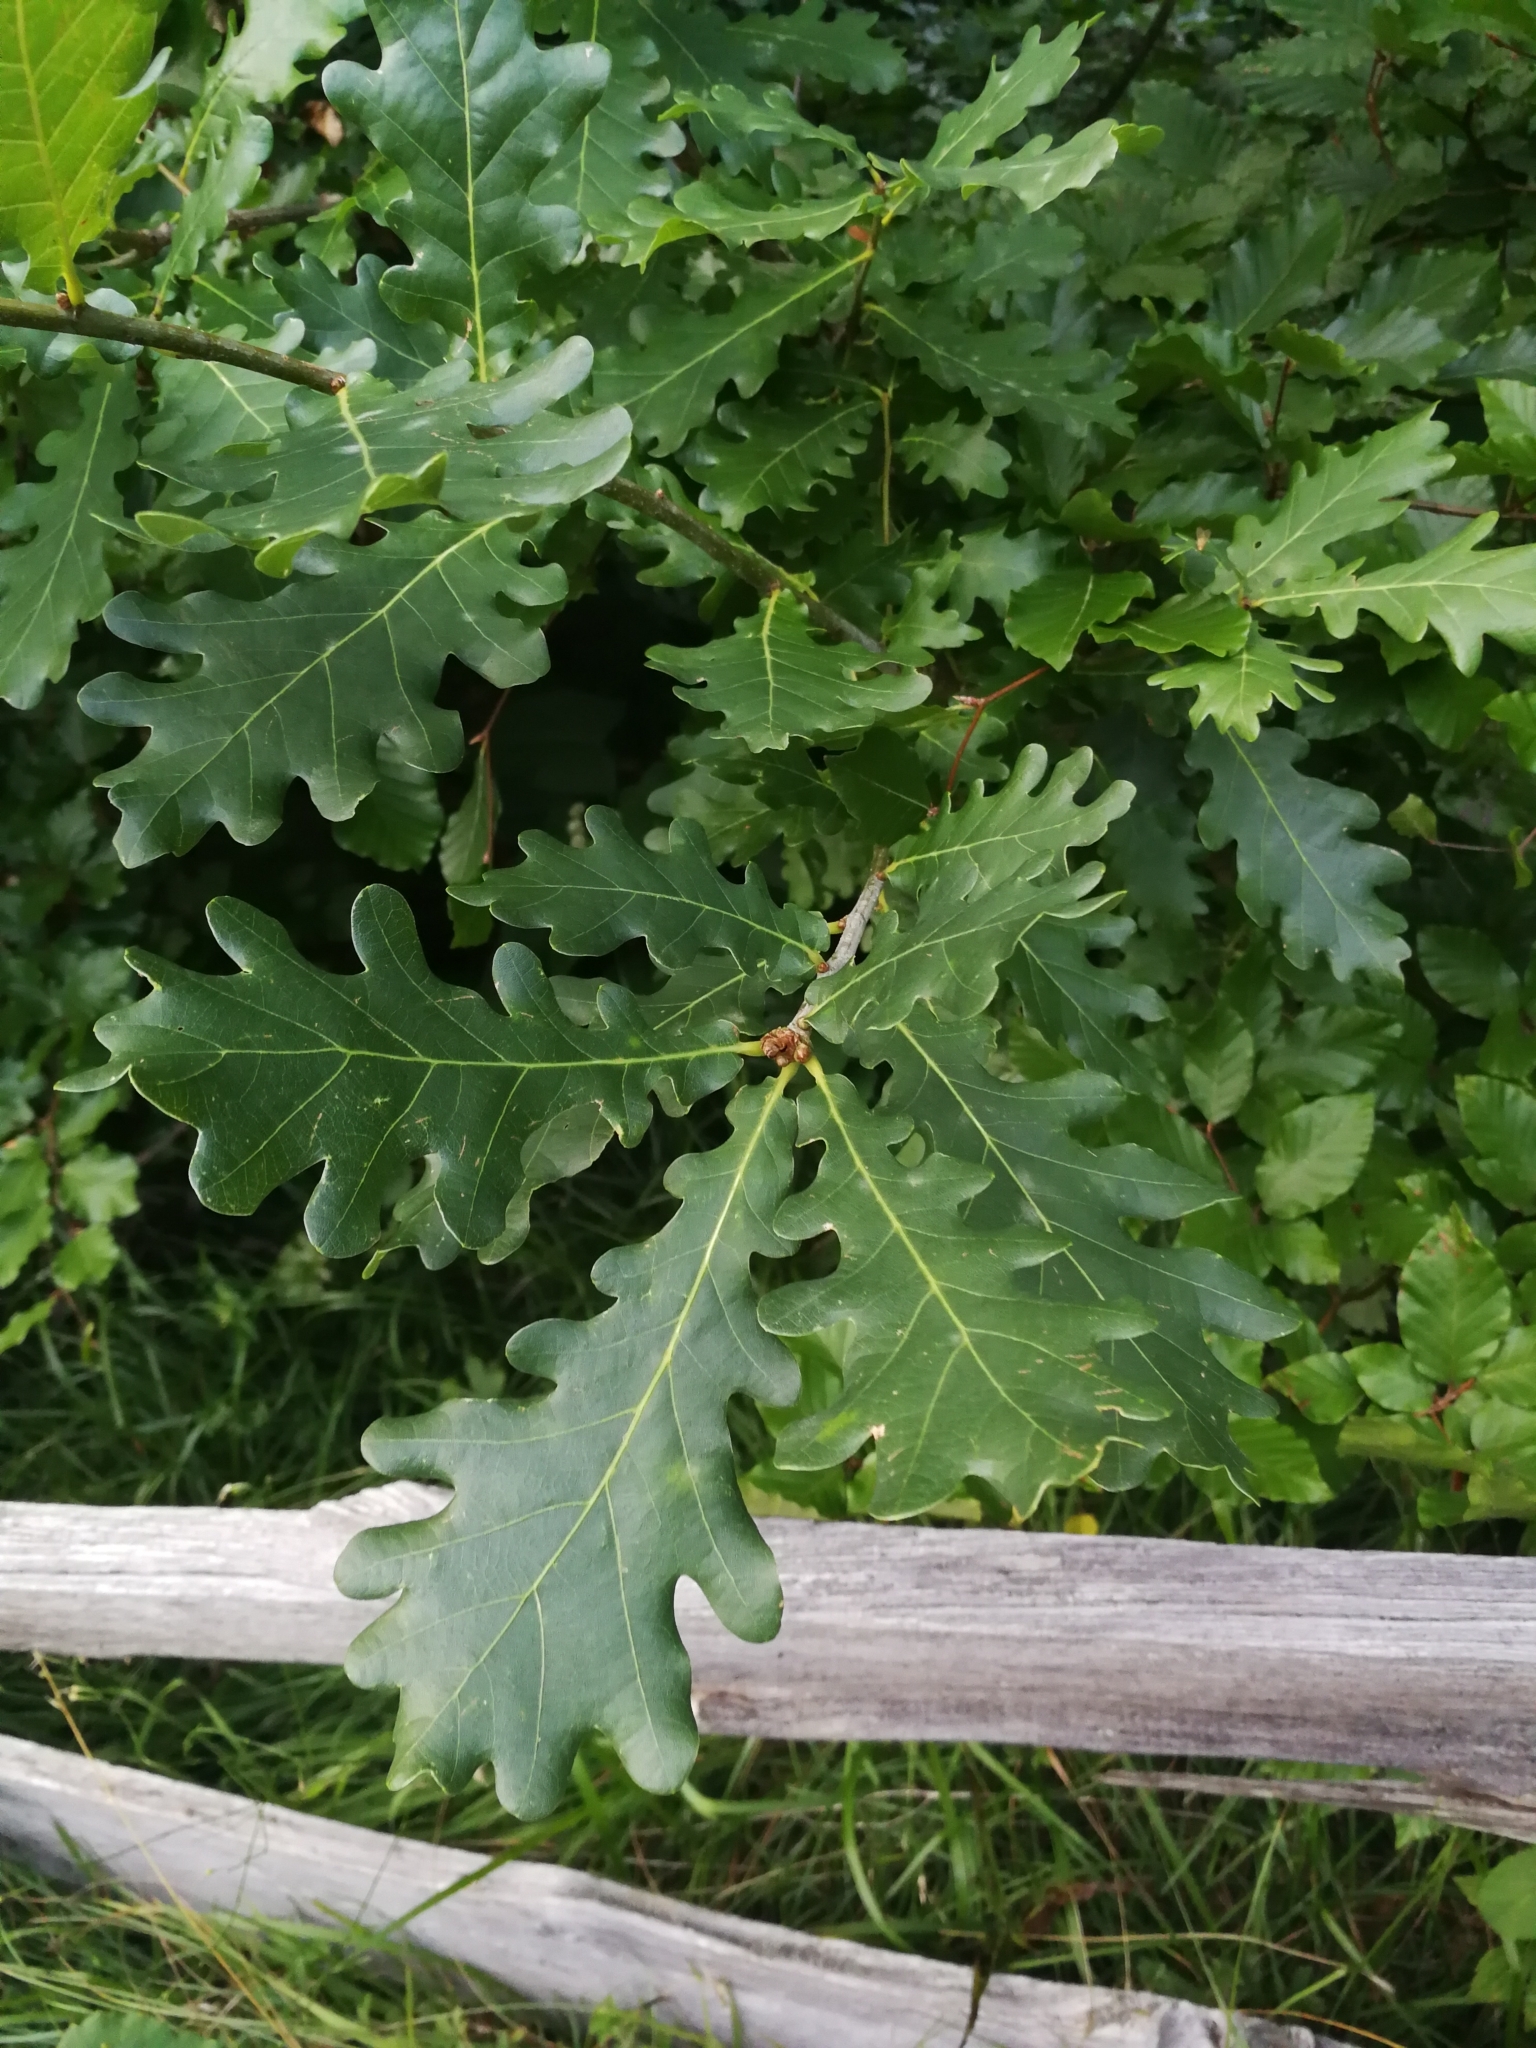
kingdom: Plantae
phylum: Tracheophyta
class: Magnoliopsida
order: Fagales
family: Fagaceae
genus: Quercus
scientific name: Quercus robur
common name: Pedunculate oak
